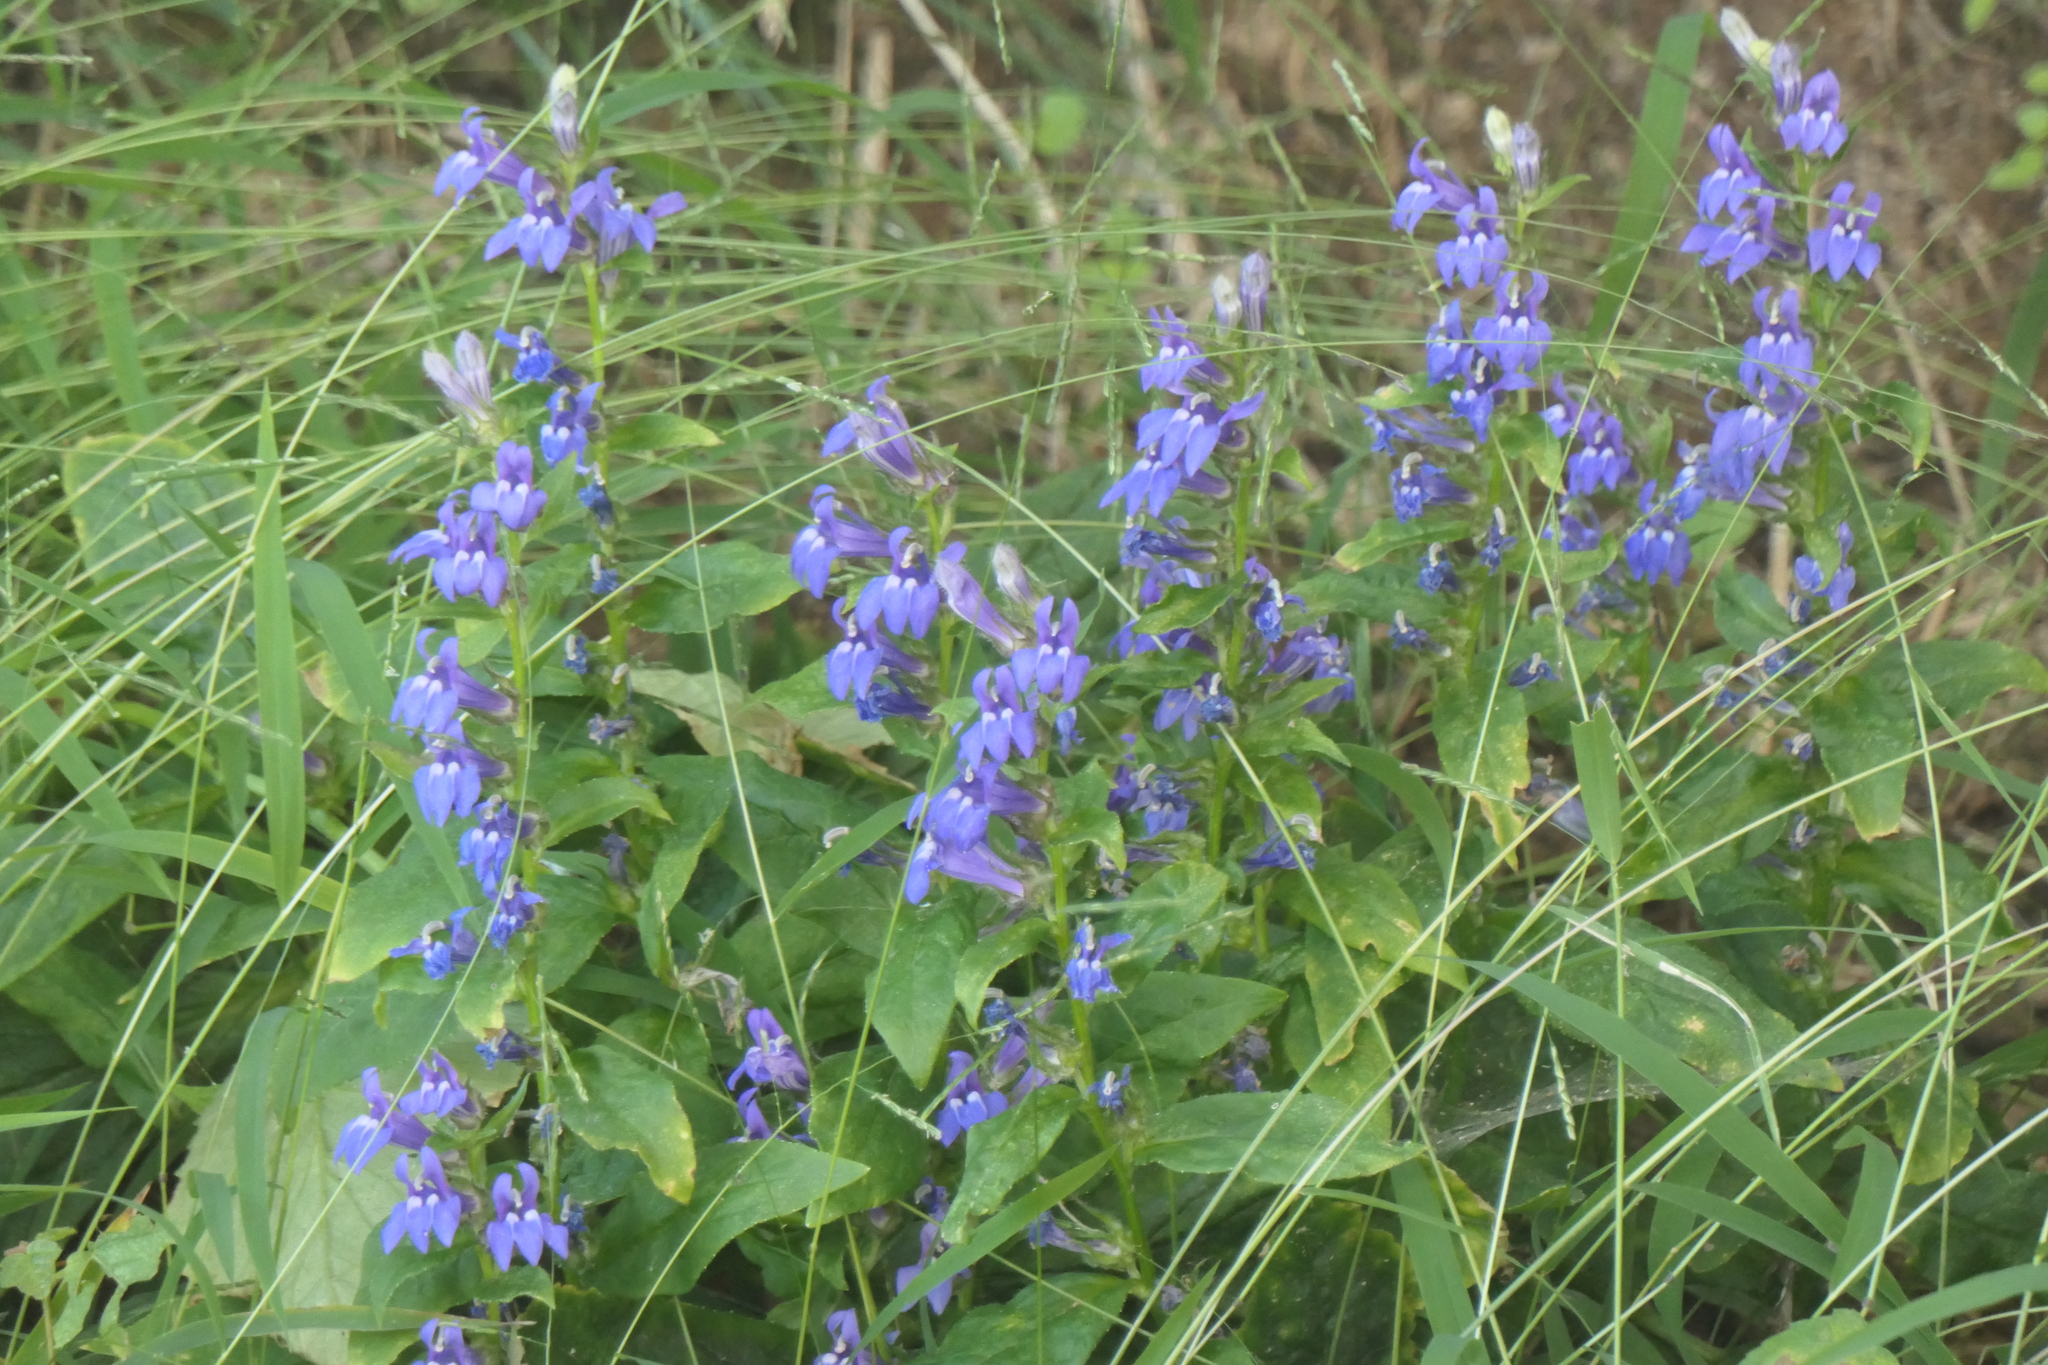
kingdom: Plantae
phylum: Tracheophyta
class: Magnoliopsida
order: Asterales
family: Campanulaceae
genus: Lobelia
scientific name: Lobelia siphilitica
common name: Great lobelia
